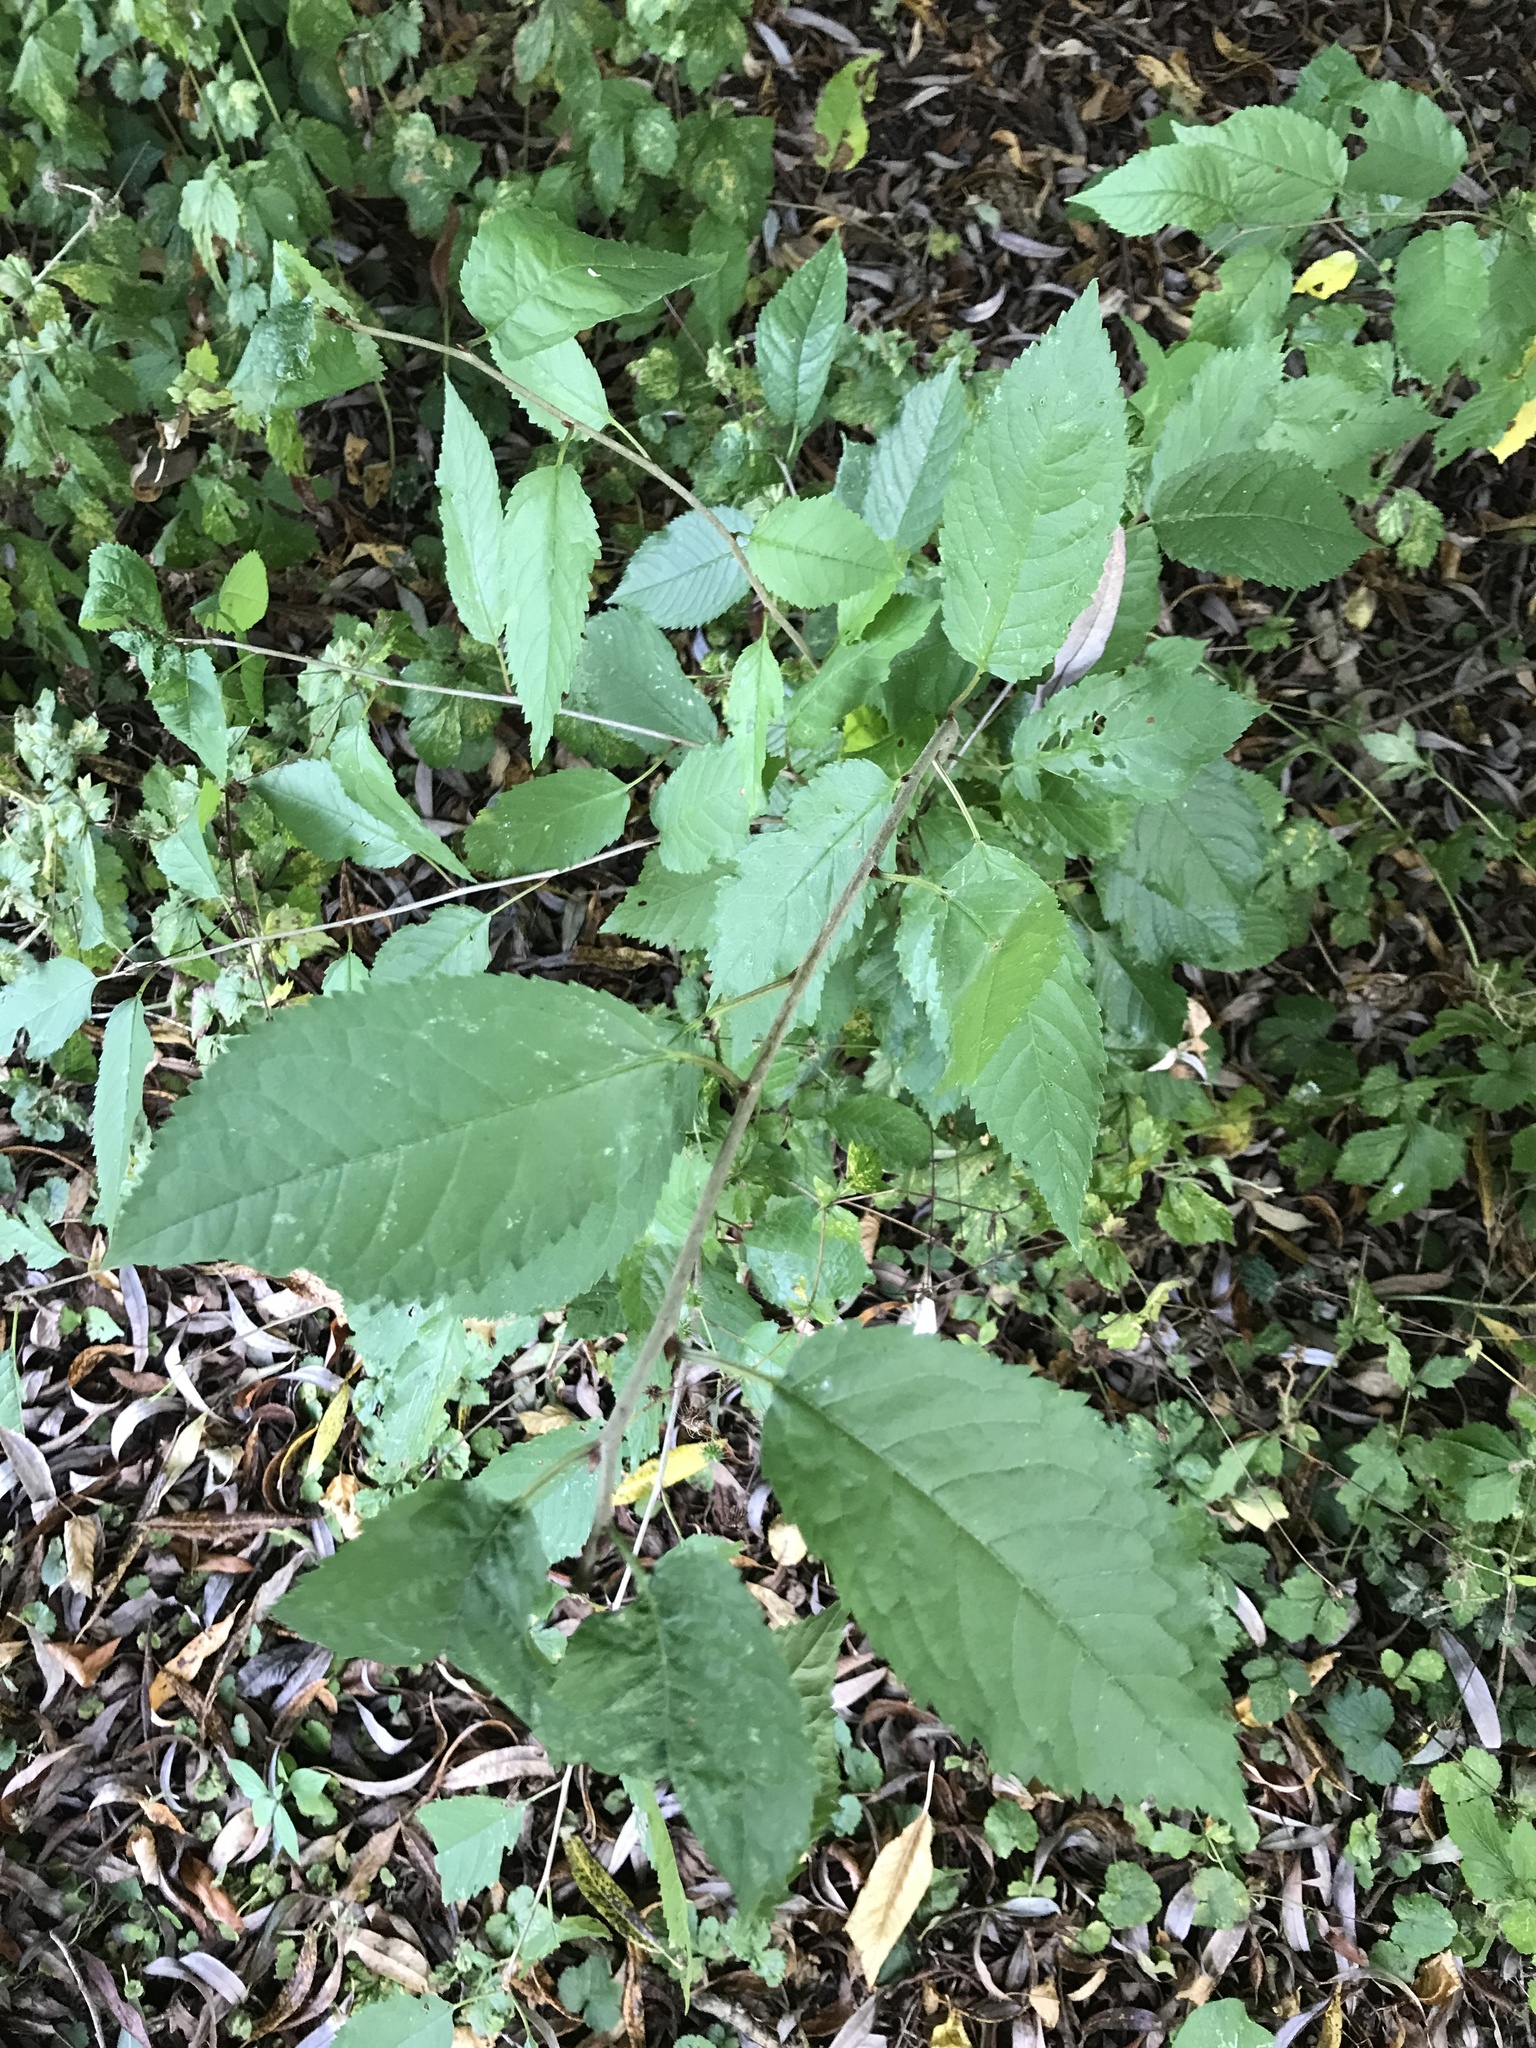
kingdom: Plantae
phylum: Tracheophyta
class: Magnoliopsida
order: Rosales
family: Rosaceae
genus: Prunus
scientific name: Prunus avium
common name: Sweet cherry
